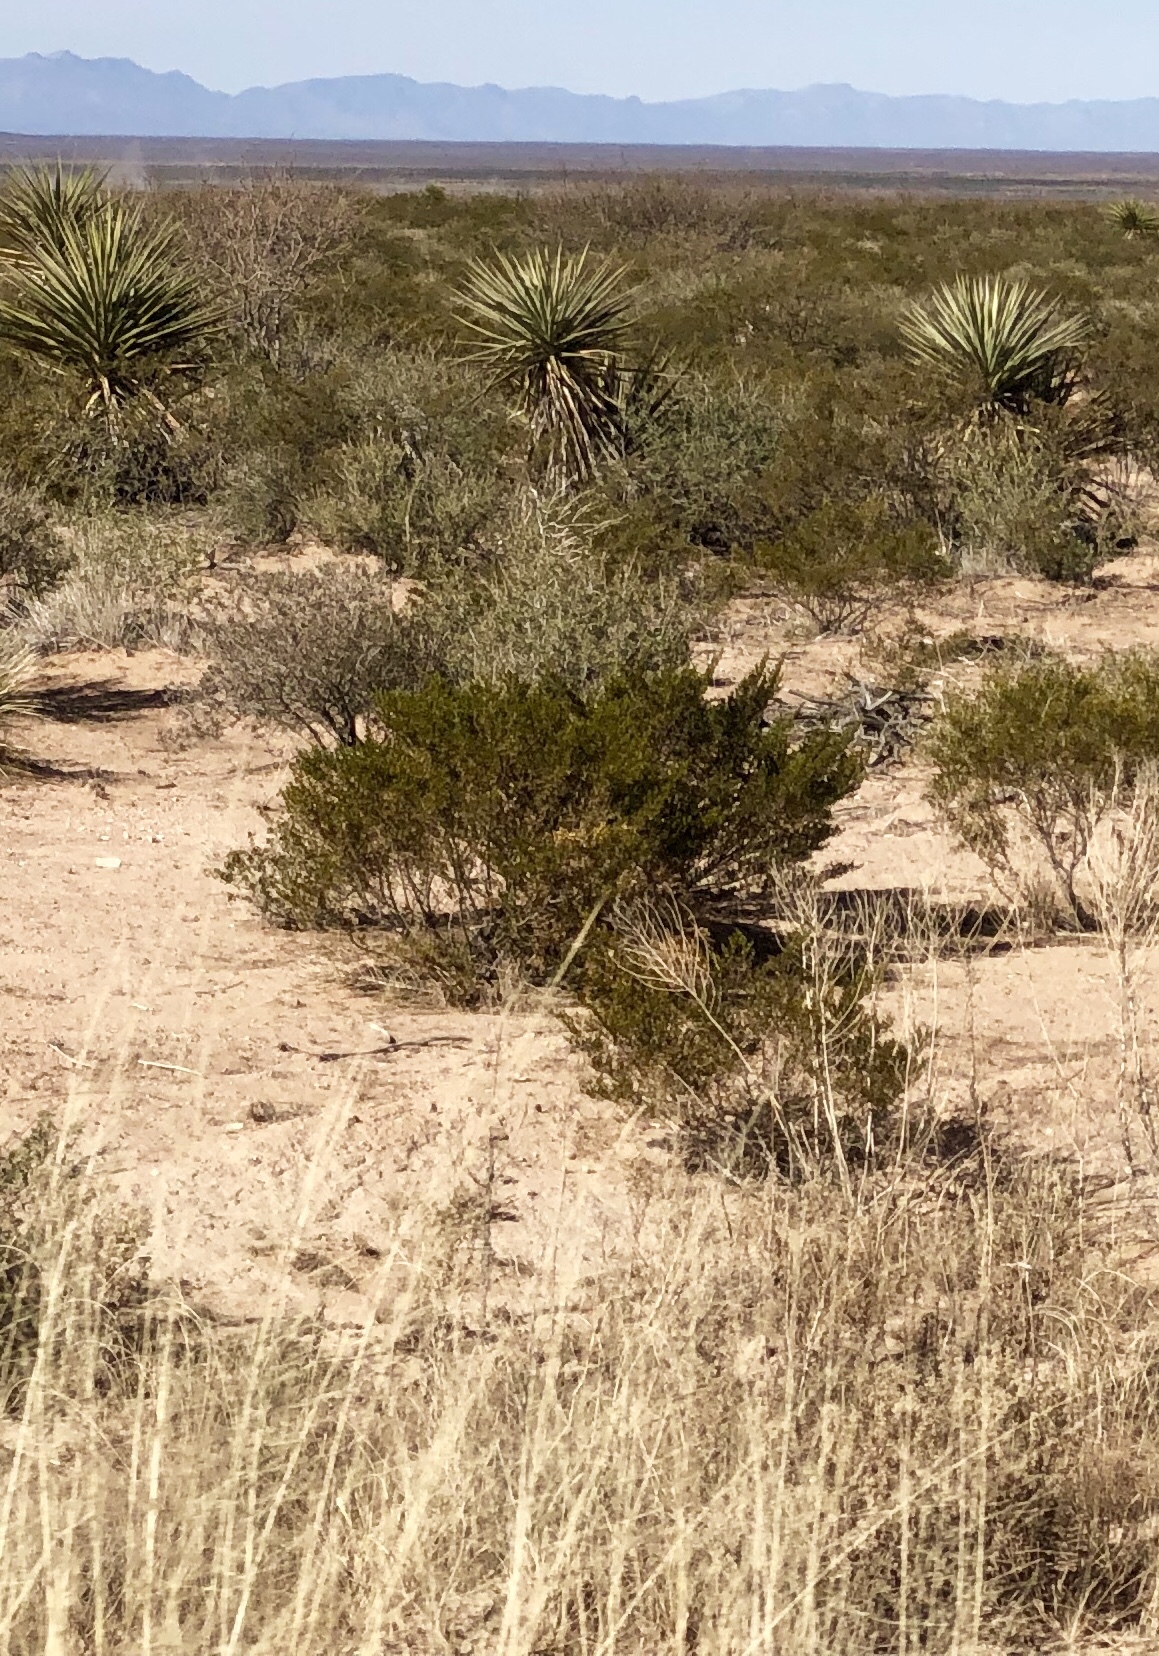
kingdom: Plantae
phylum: Tracheophyta
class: Magnoliopsida
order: Zygophyllales
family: Zygophyllaceae
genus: Larrea
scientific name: Larrea tridentata
